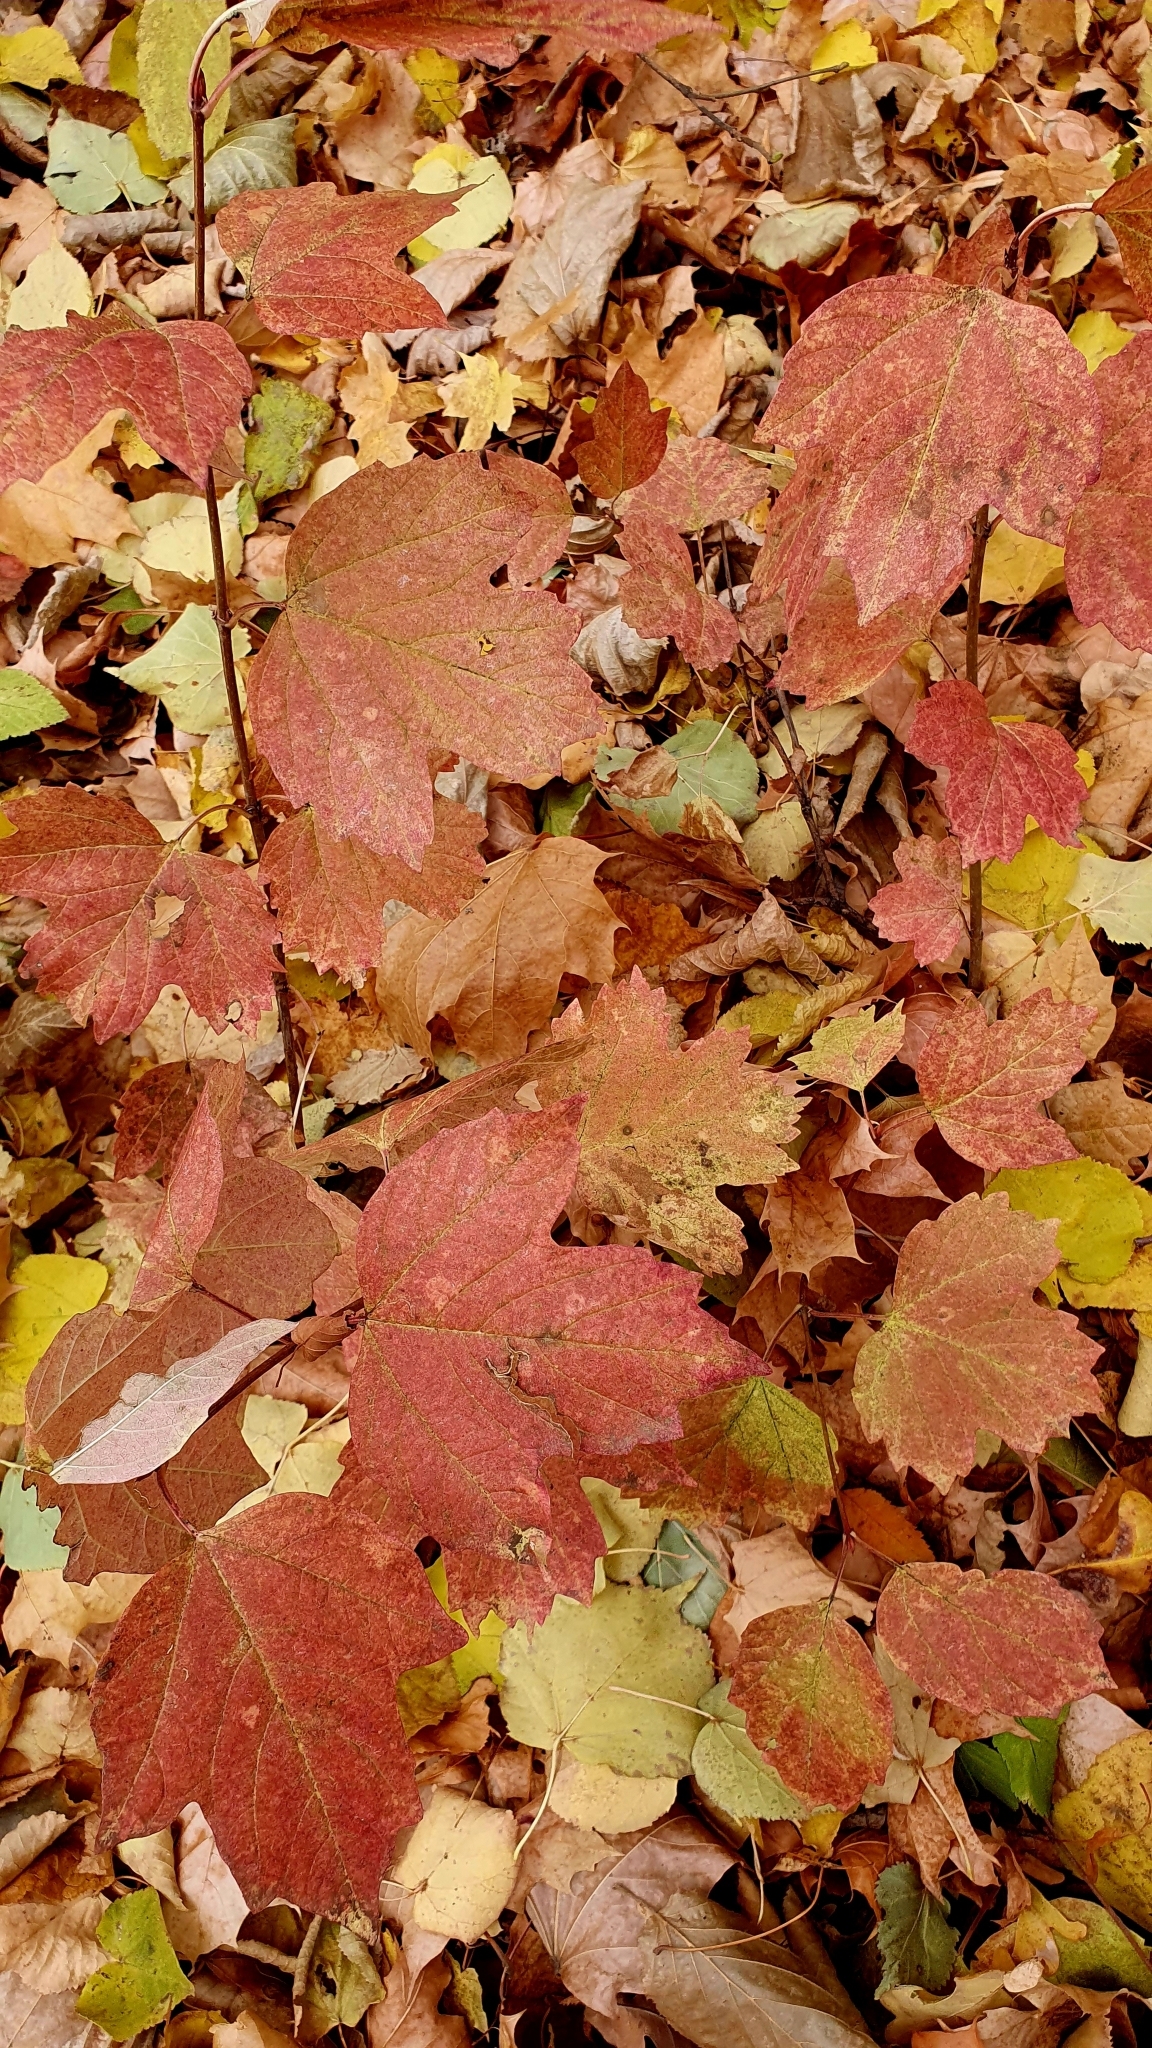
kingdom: Plantae
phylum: Tracheophyta
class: Magnoliopsida
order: Dipsacales
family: Viburnaceae
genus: Viburnum
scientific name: Viburnum opulus
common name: Guelder-rose
